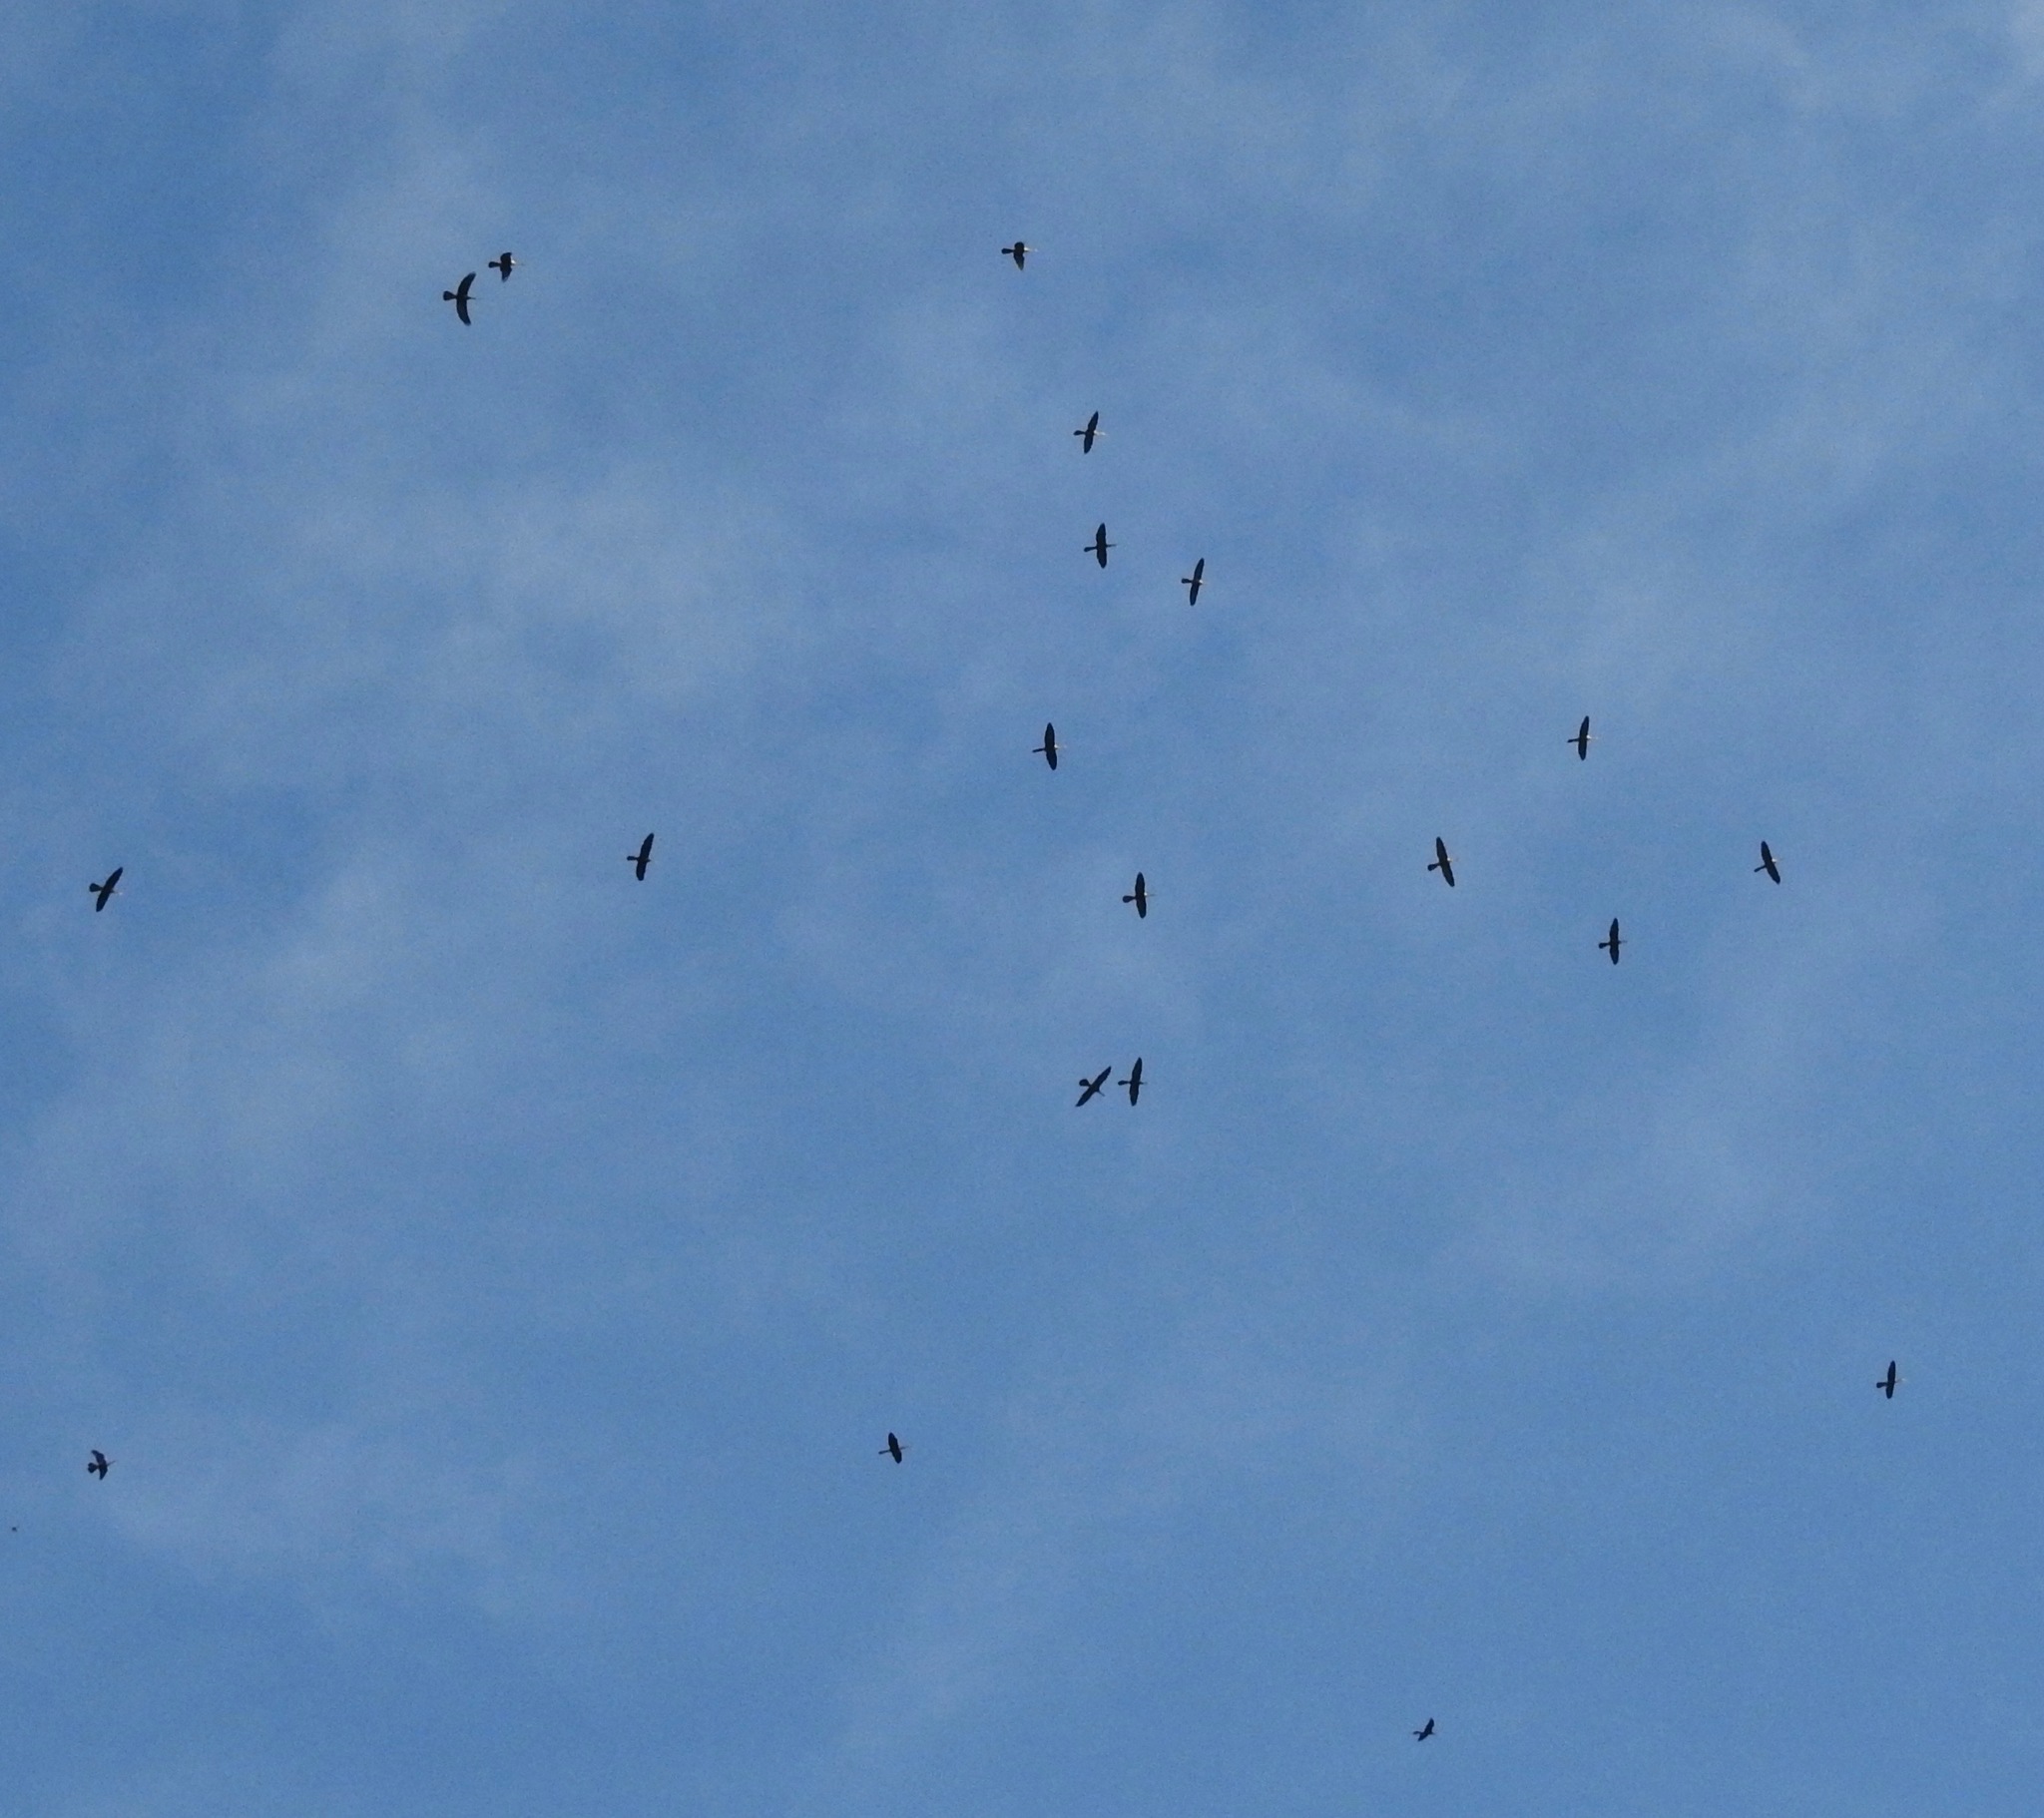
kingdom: Animalia
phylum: Chordata
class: Aves
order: Suliformes
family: Anhingidae
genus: Anhinga
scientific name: Anhinga anhinga
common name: Anhinga
